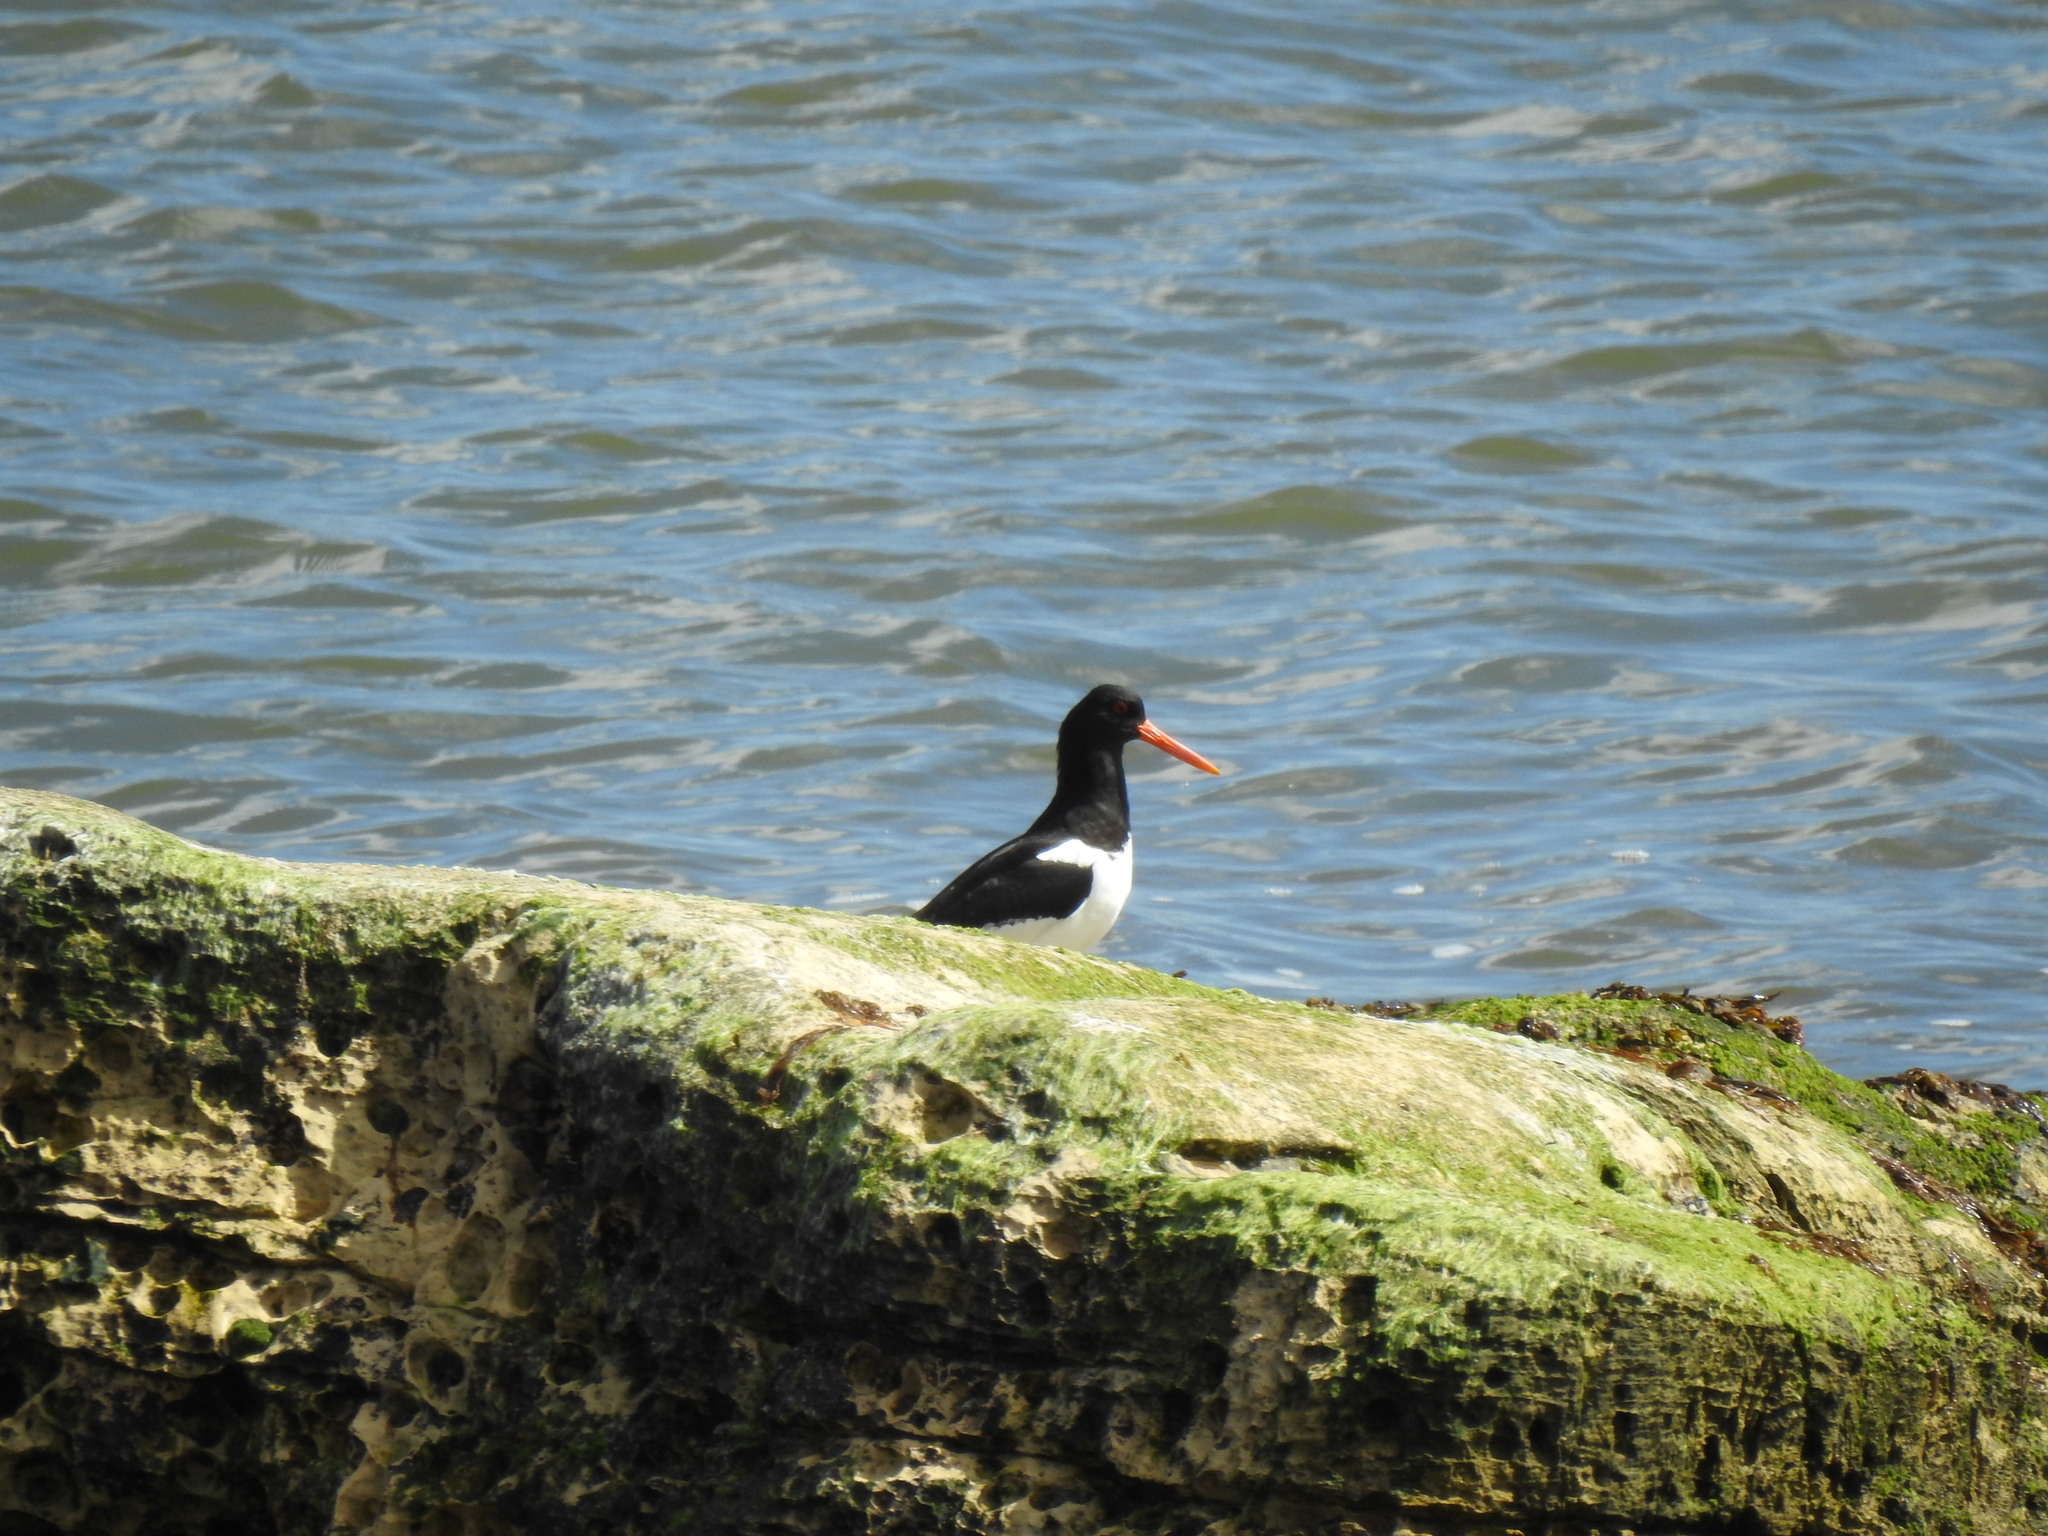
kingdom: Animalia
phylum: Chordata
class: Aves
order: Charadriiformes
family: Haematopodidae
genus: Haematopus
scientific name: Haematopus ostralegus
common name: Eurasian oystercatcher
